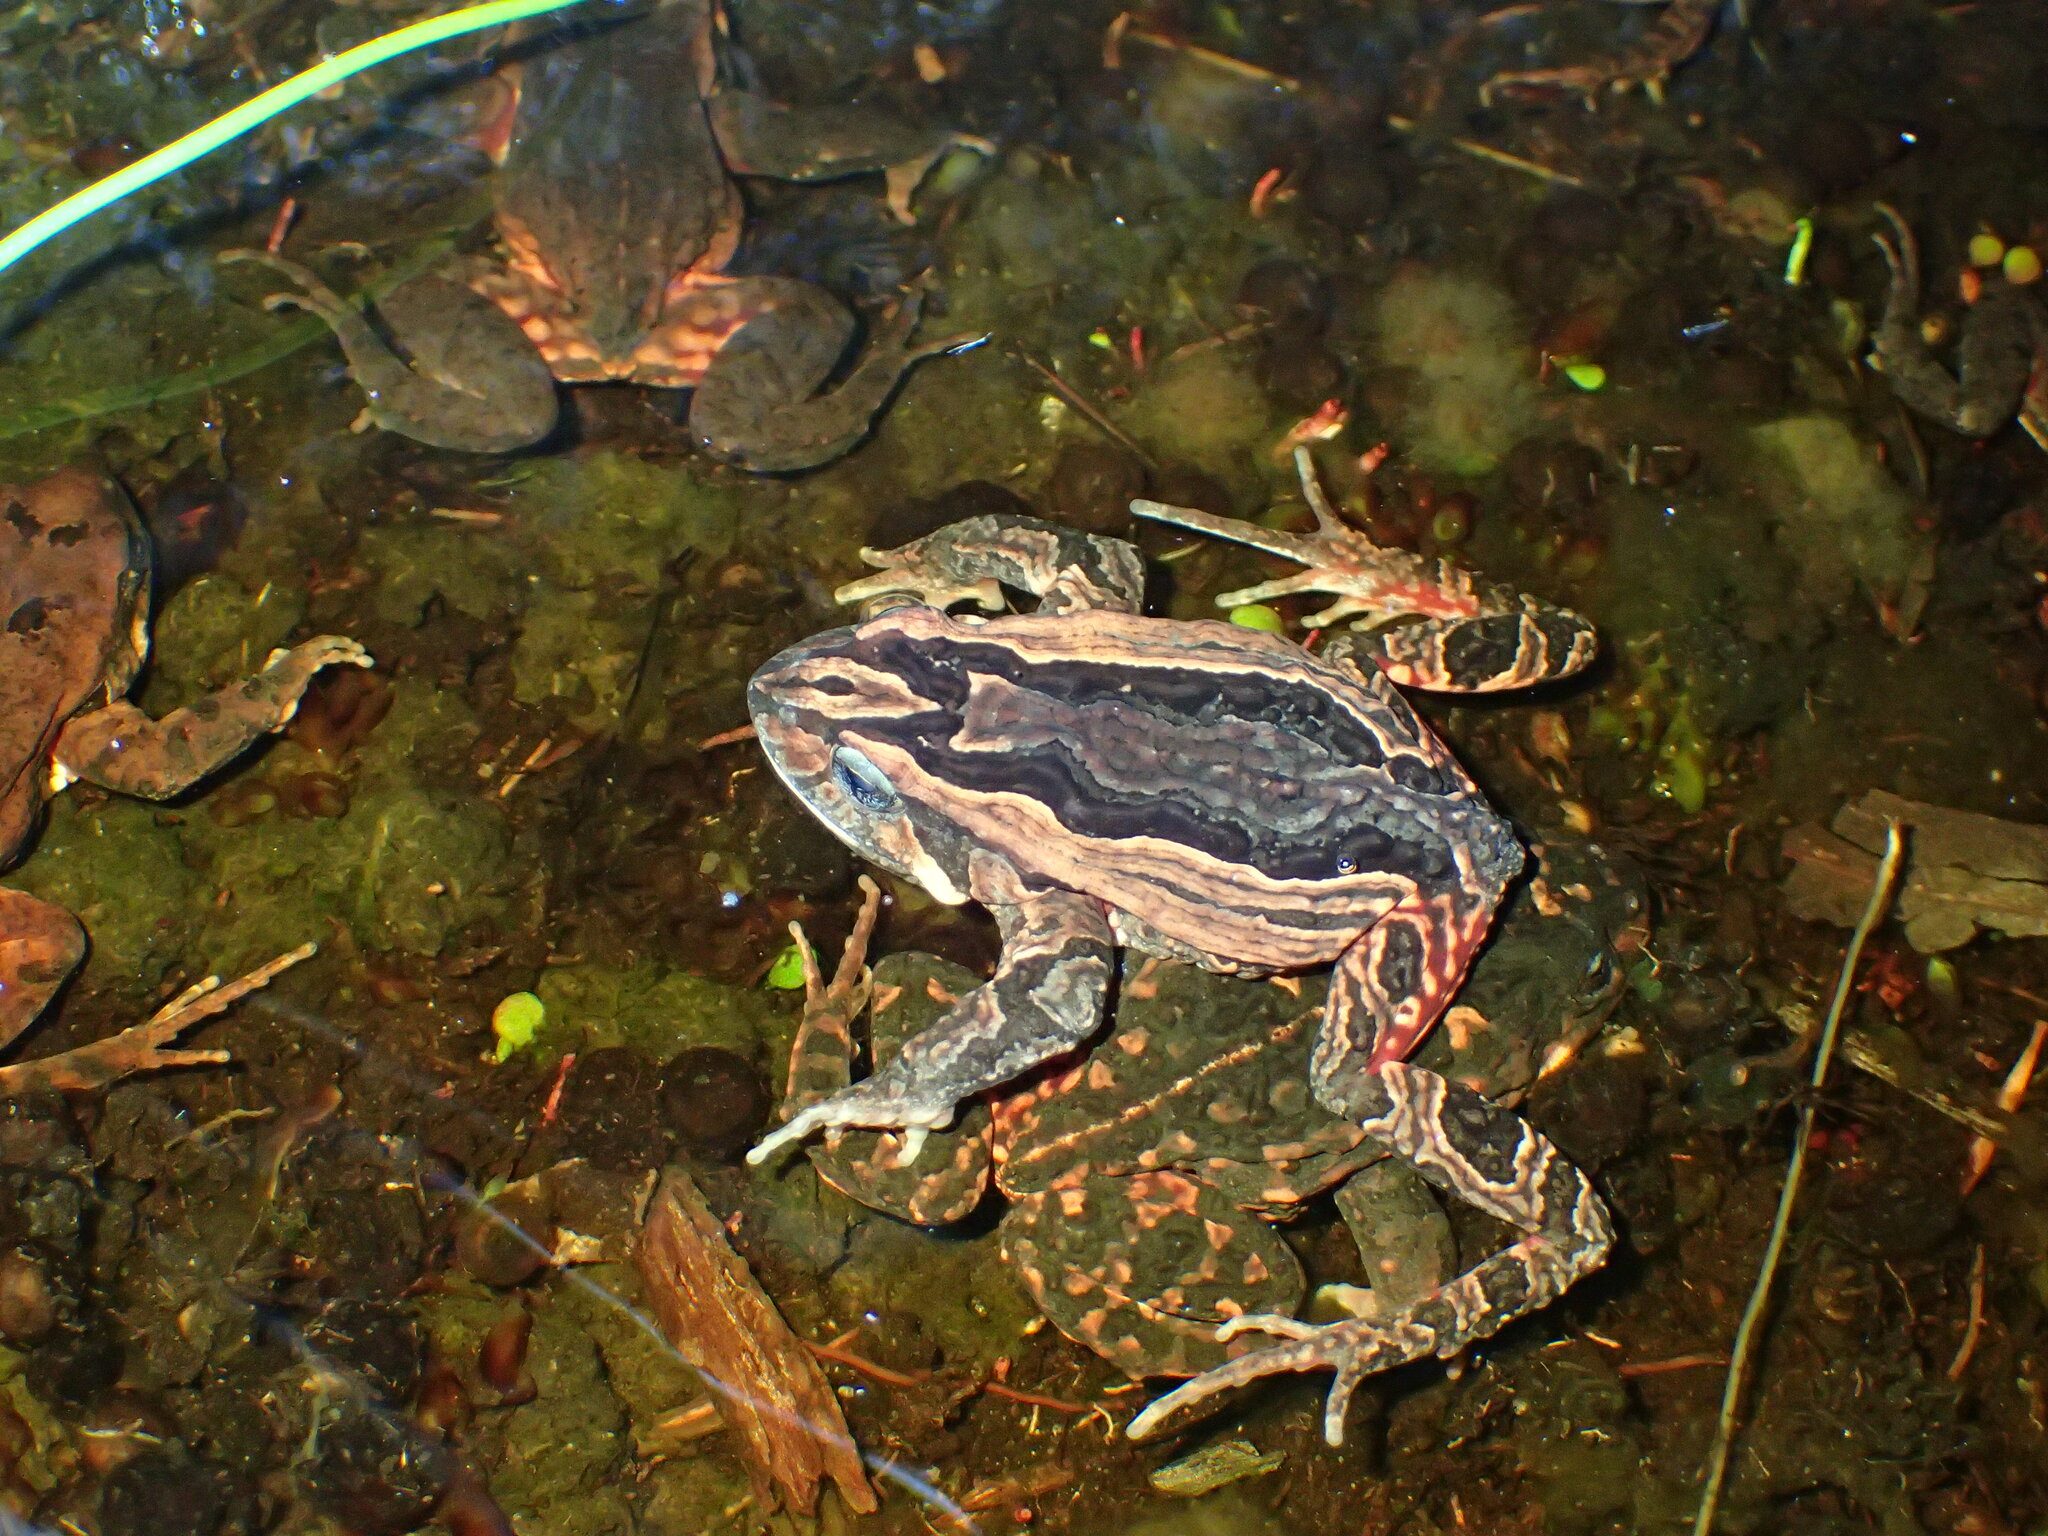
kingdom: Animalia
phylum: Chordata
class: Amphibia
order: Anura
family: Myobatrachidae
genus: Crinia
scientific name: Crinia georgiana
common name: Quacking frog
